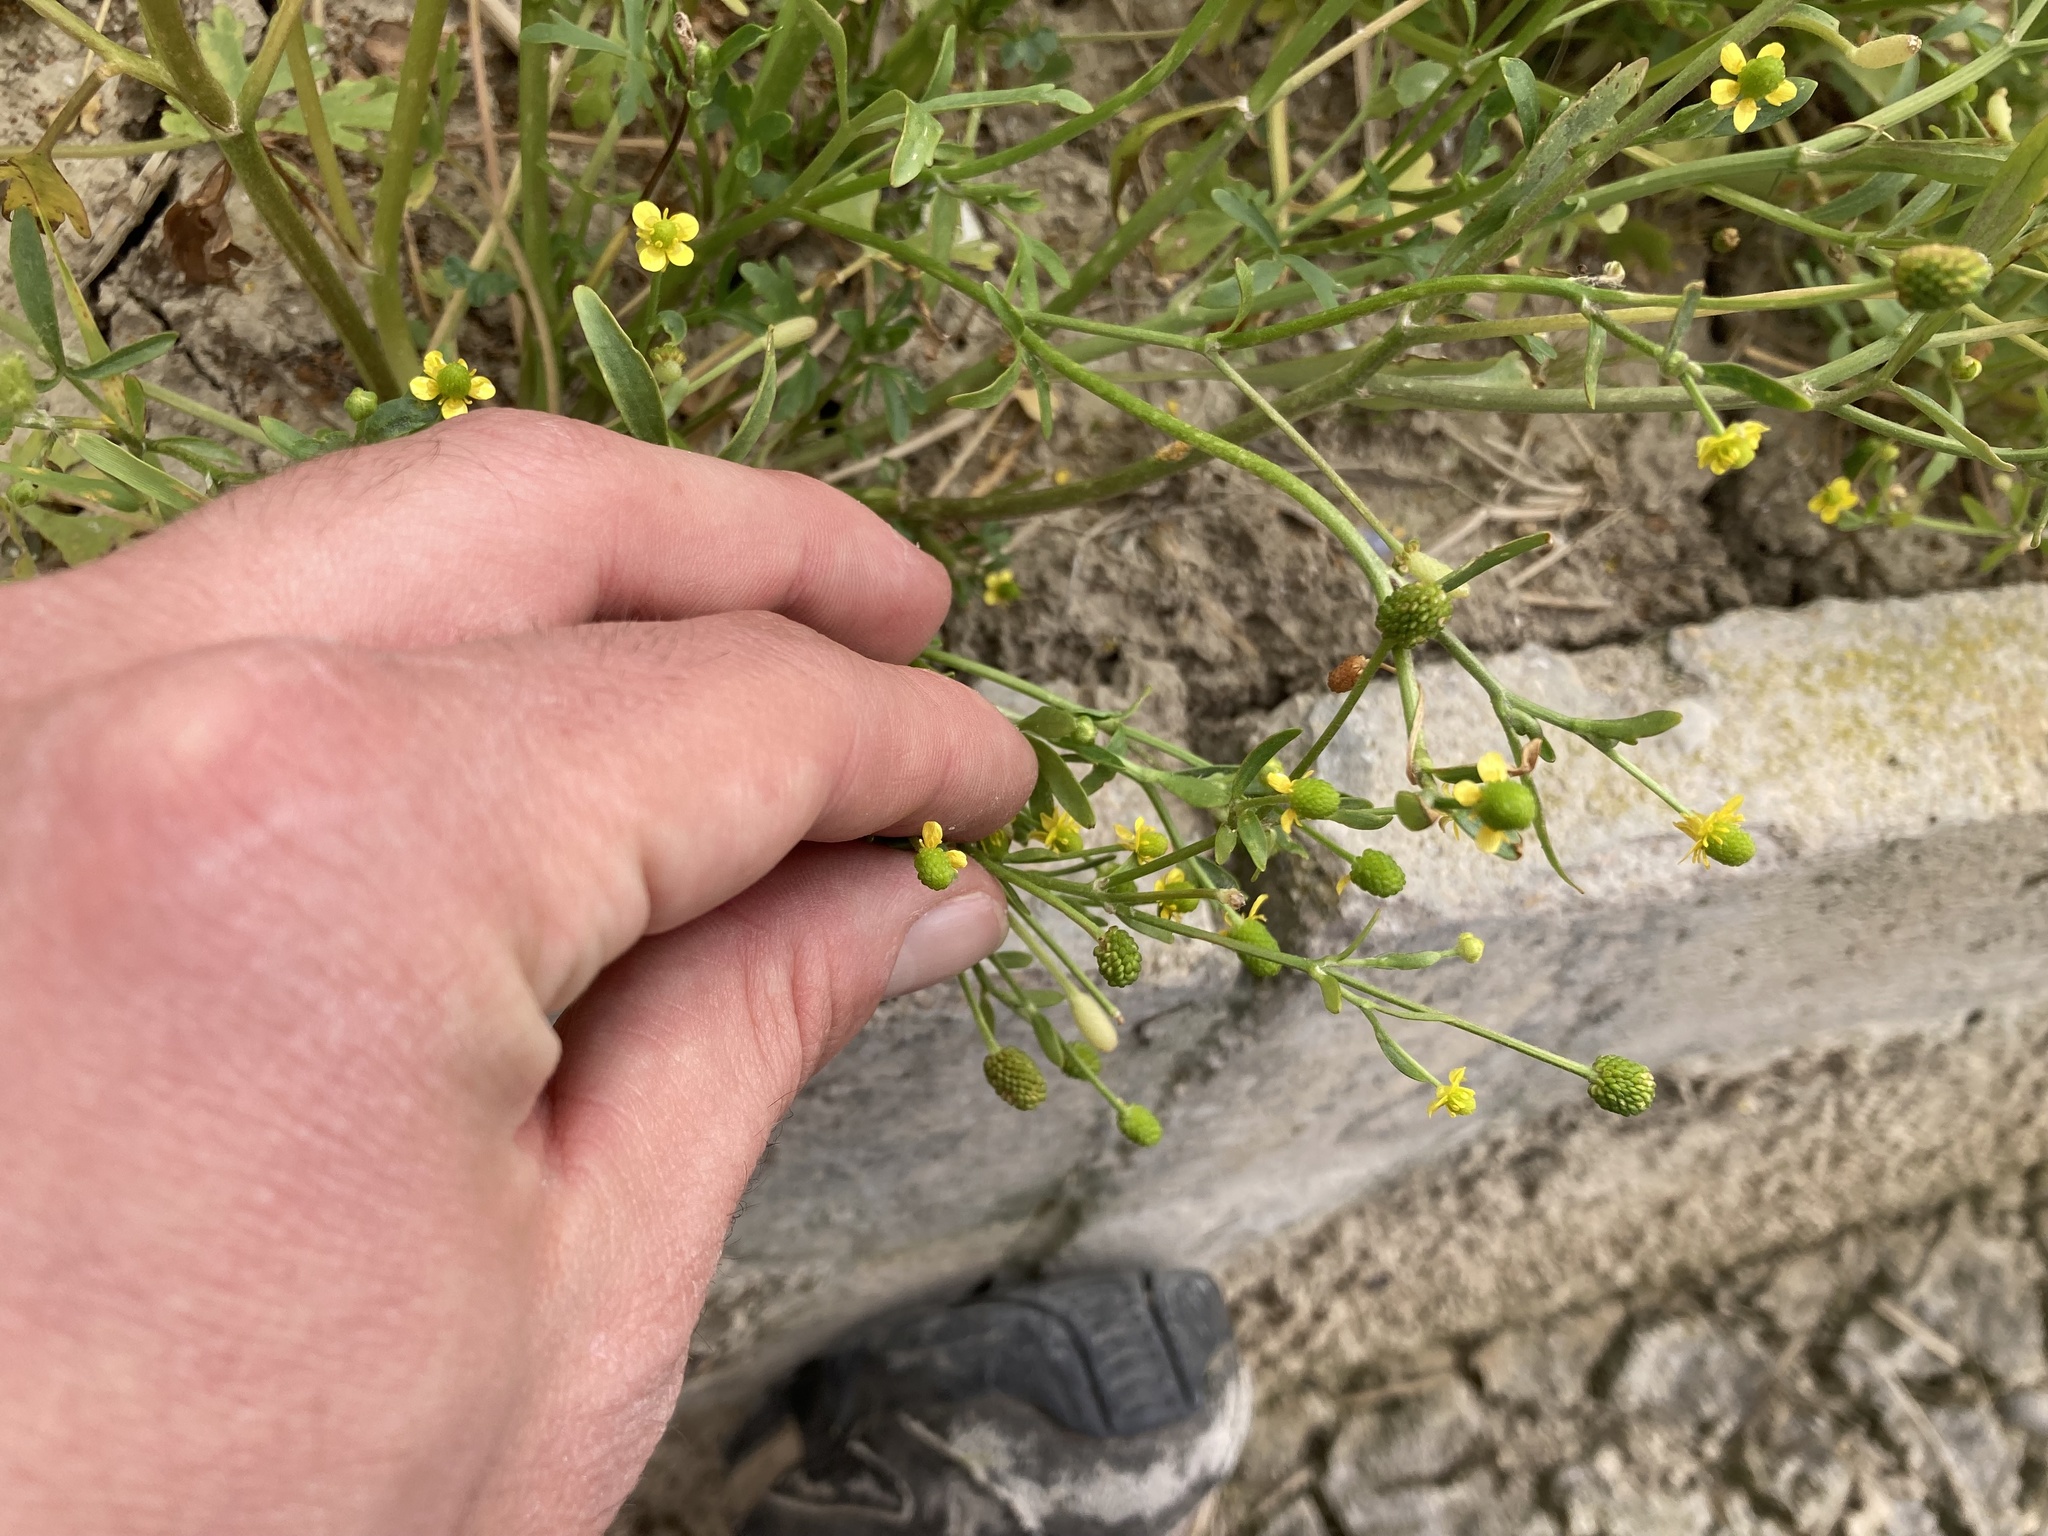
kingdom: Plantae
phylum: Tracheophyta
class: Magnoliopsida
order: Ranunculales
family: Ranunculaceae
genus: Ranunculus
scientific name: Ranunculus sceleratus
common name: Celery-leaved buttercup
